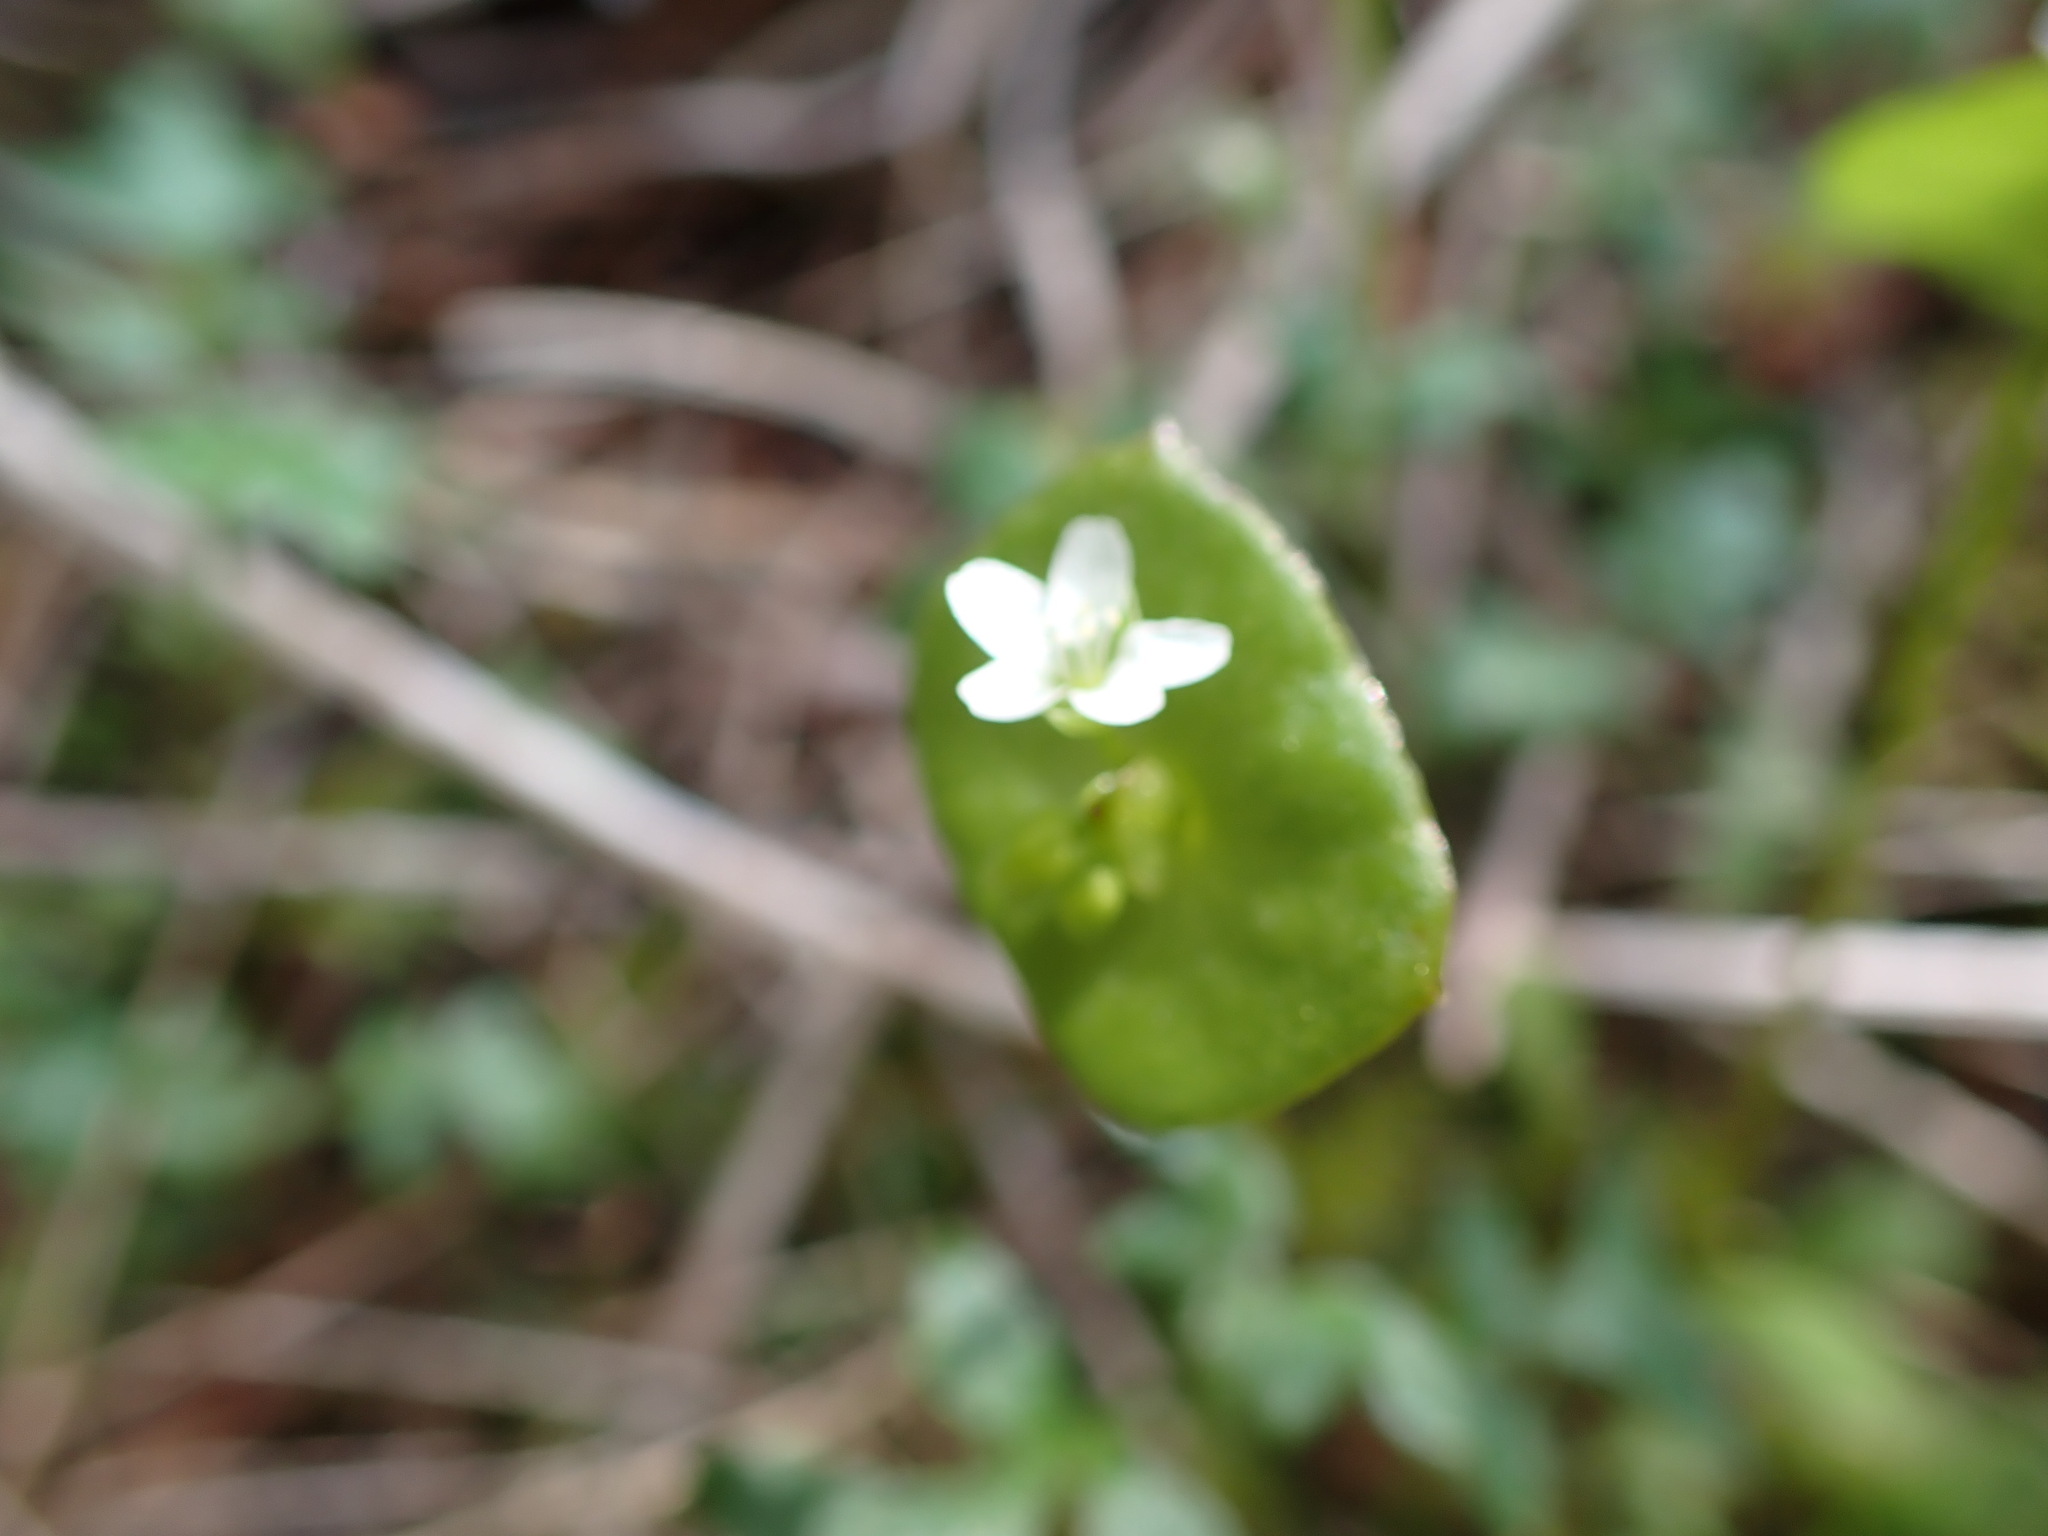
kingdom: Plantae
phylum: Tracheophyta
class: Magnoliopsida
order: Caryophyllales
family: Montiaceae
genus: Claytonia
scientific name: Claytonia perfoliata
